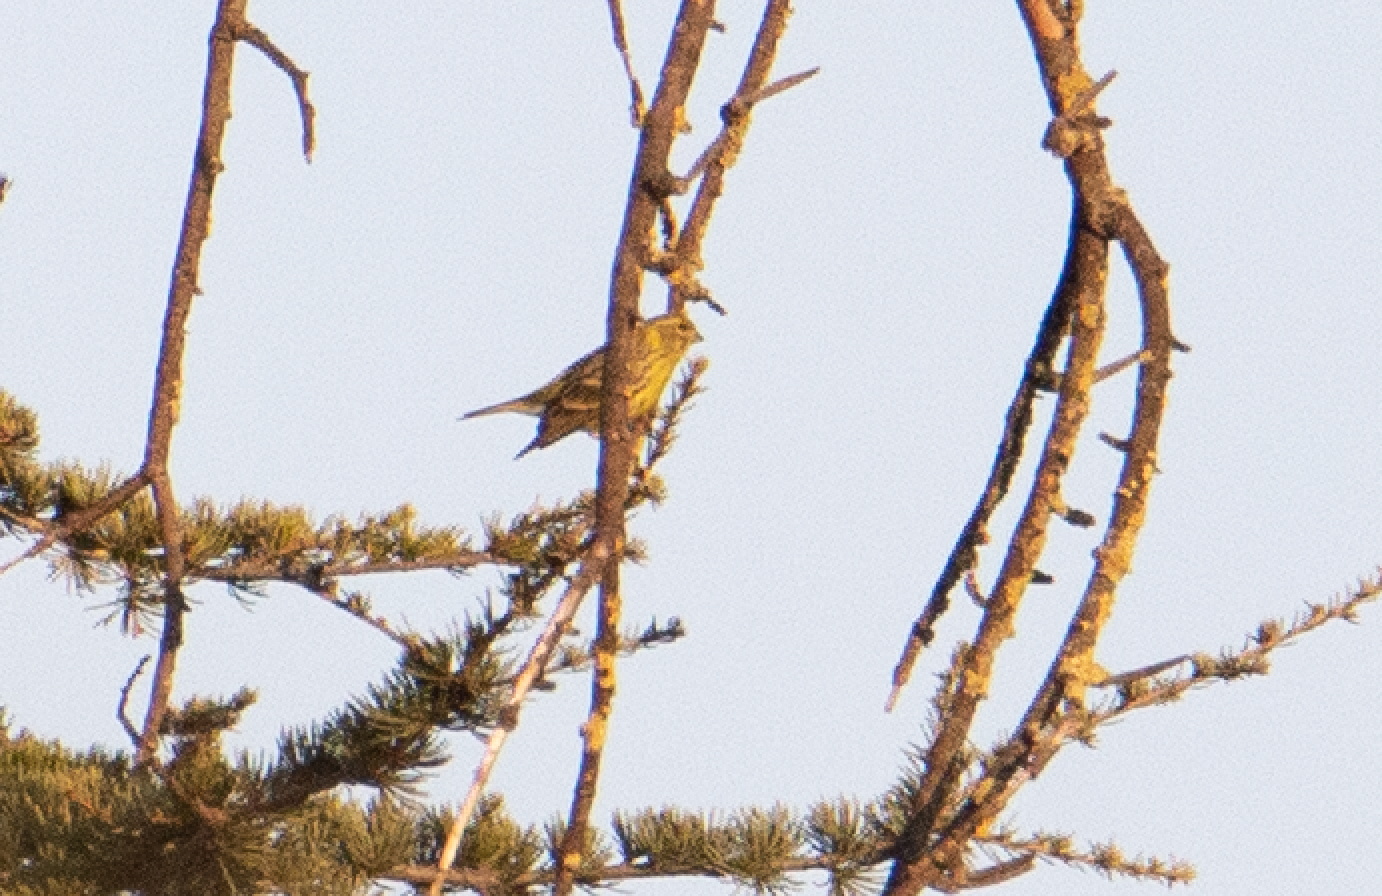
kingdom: Animalia
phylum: Chordata
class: Aves
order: Passeriformes
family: Fringillidae
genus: Serinus
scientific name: Serinus serinus
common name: European serin
